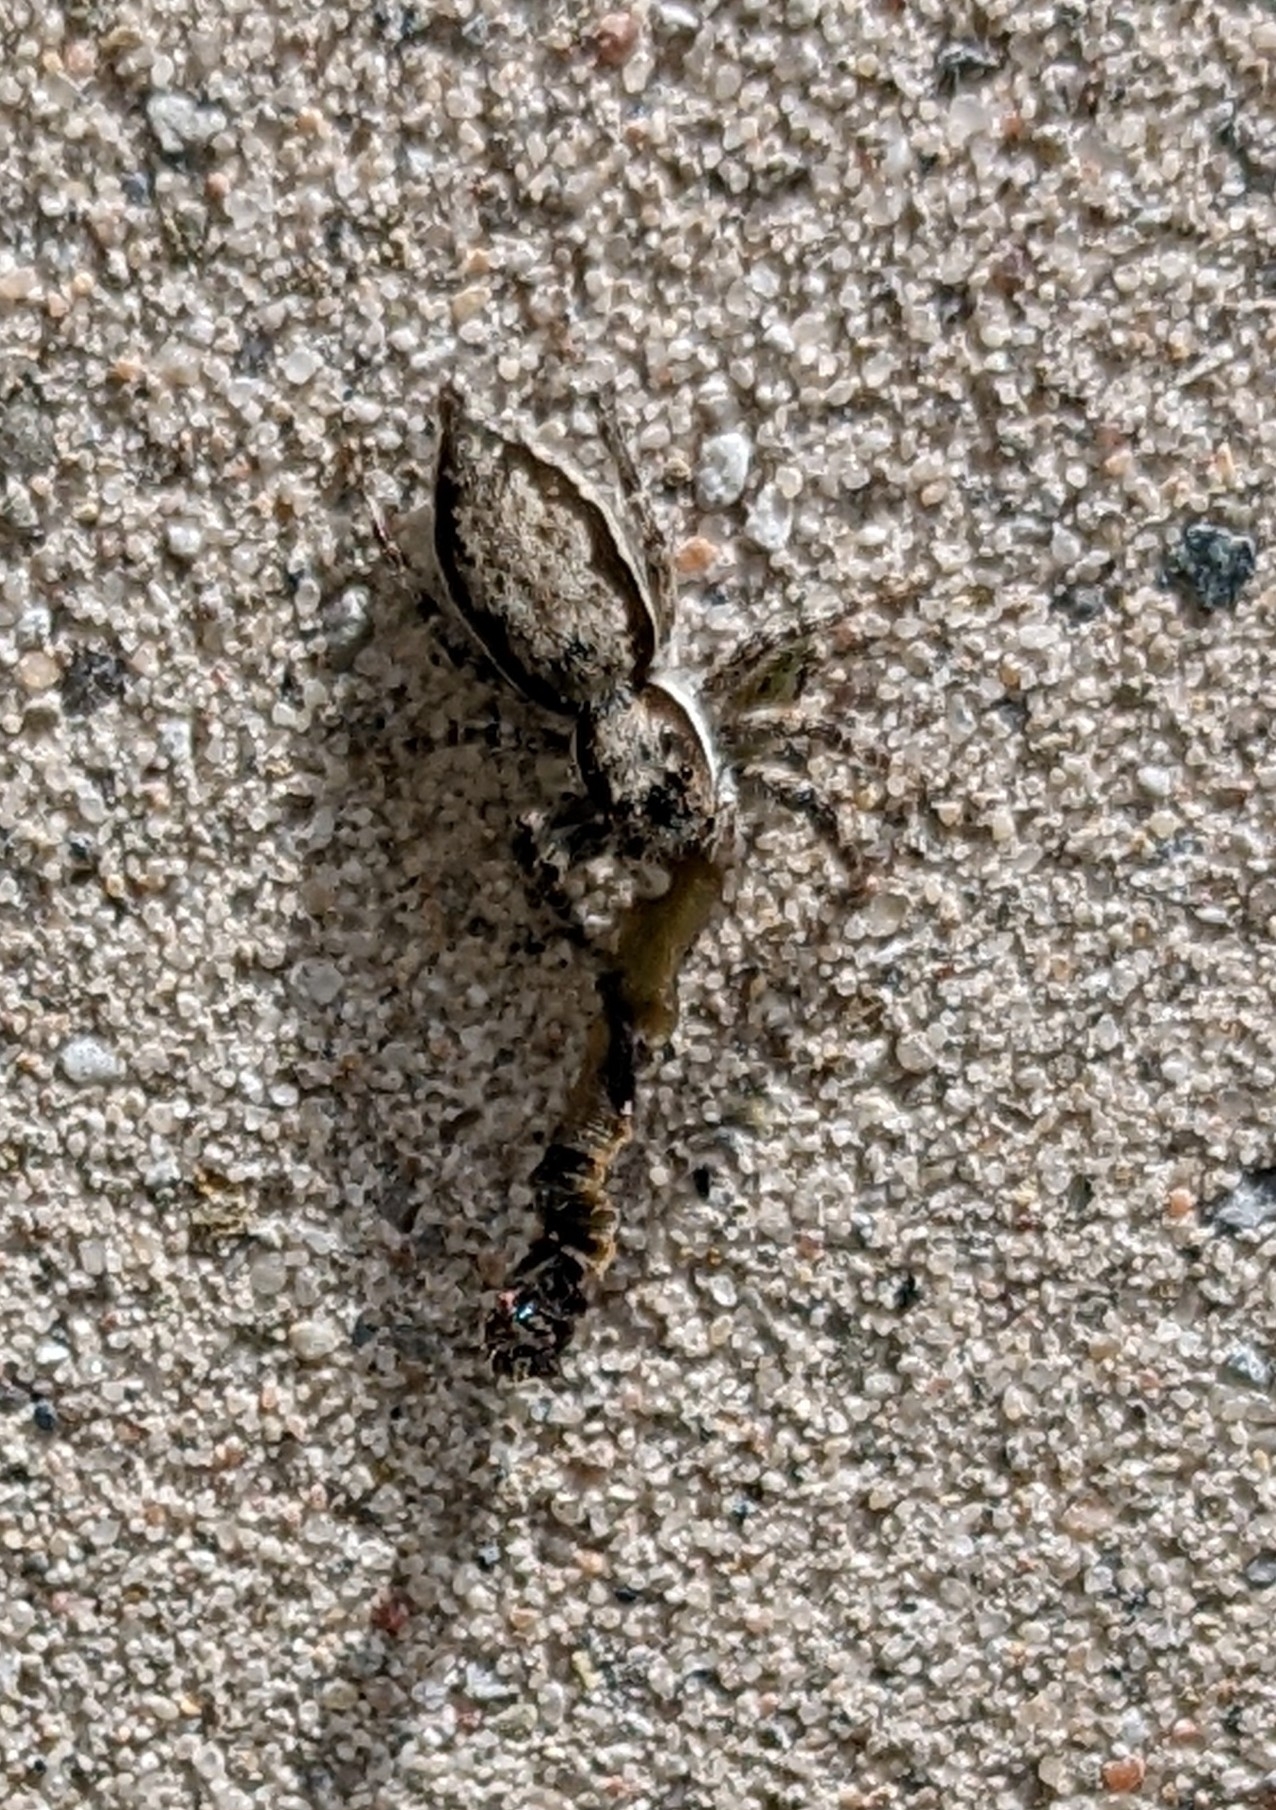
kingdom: Animalia
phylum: Arthropoda
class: Arachnida
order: Araneae
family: Salticidae
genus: Menemerus
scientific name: Menemerus bivittatus
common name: Gray wall jumper
